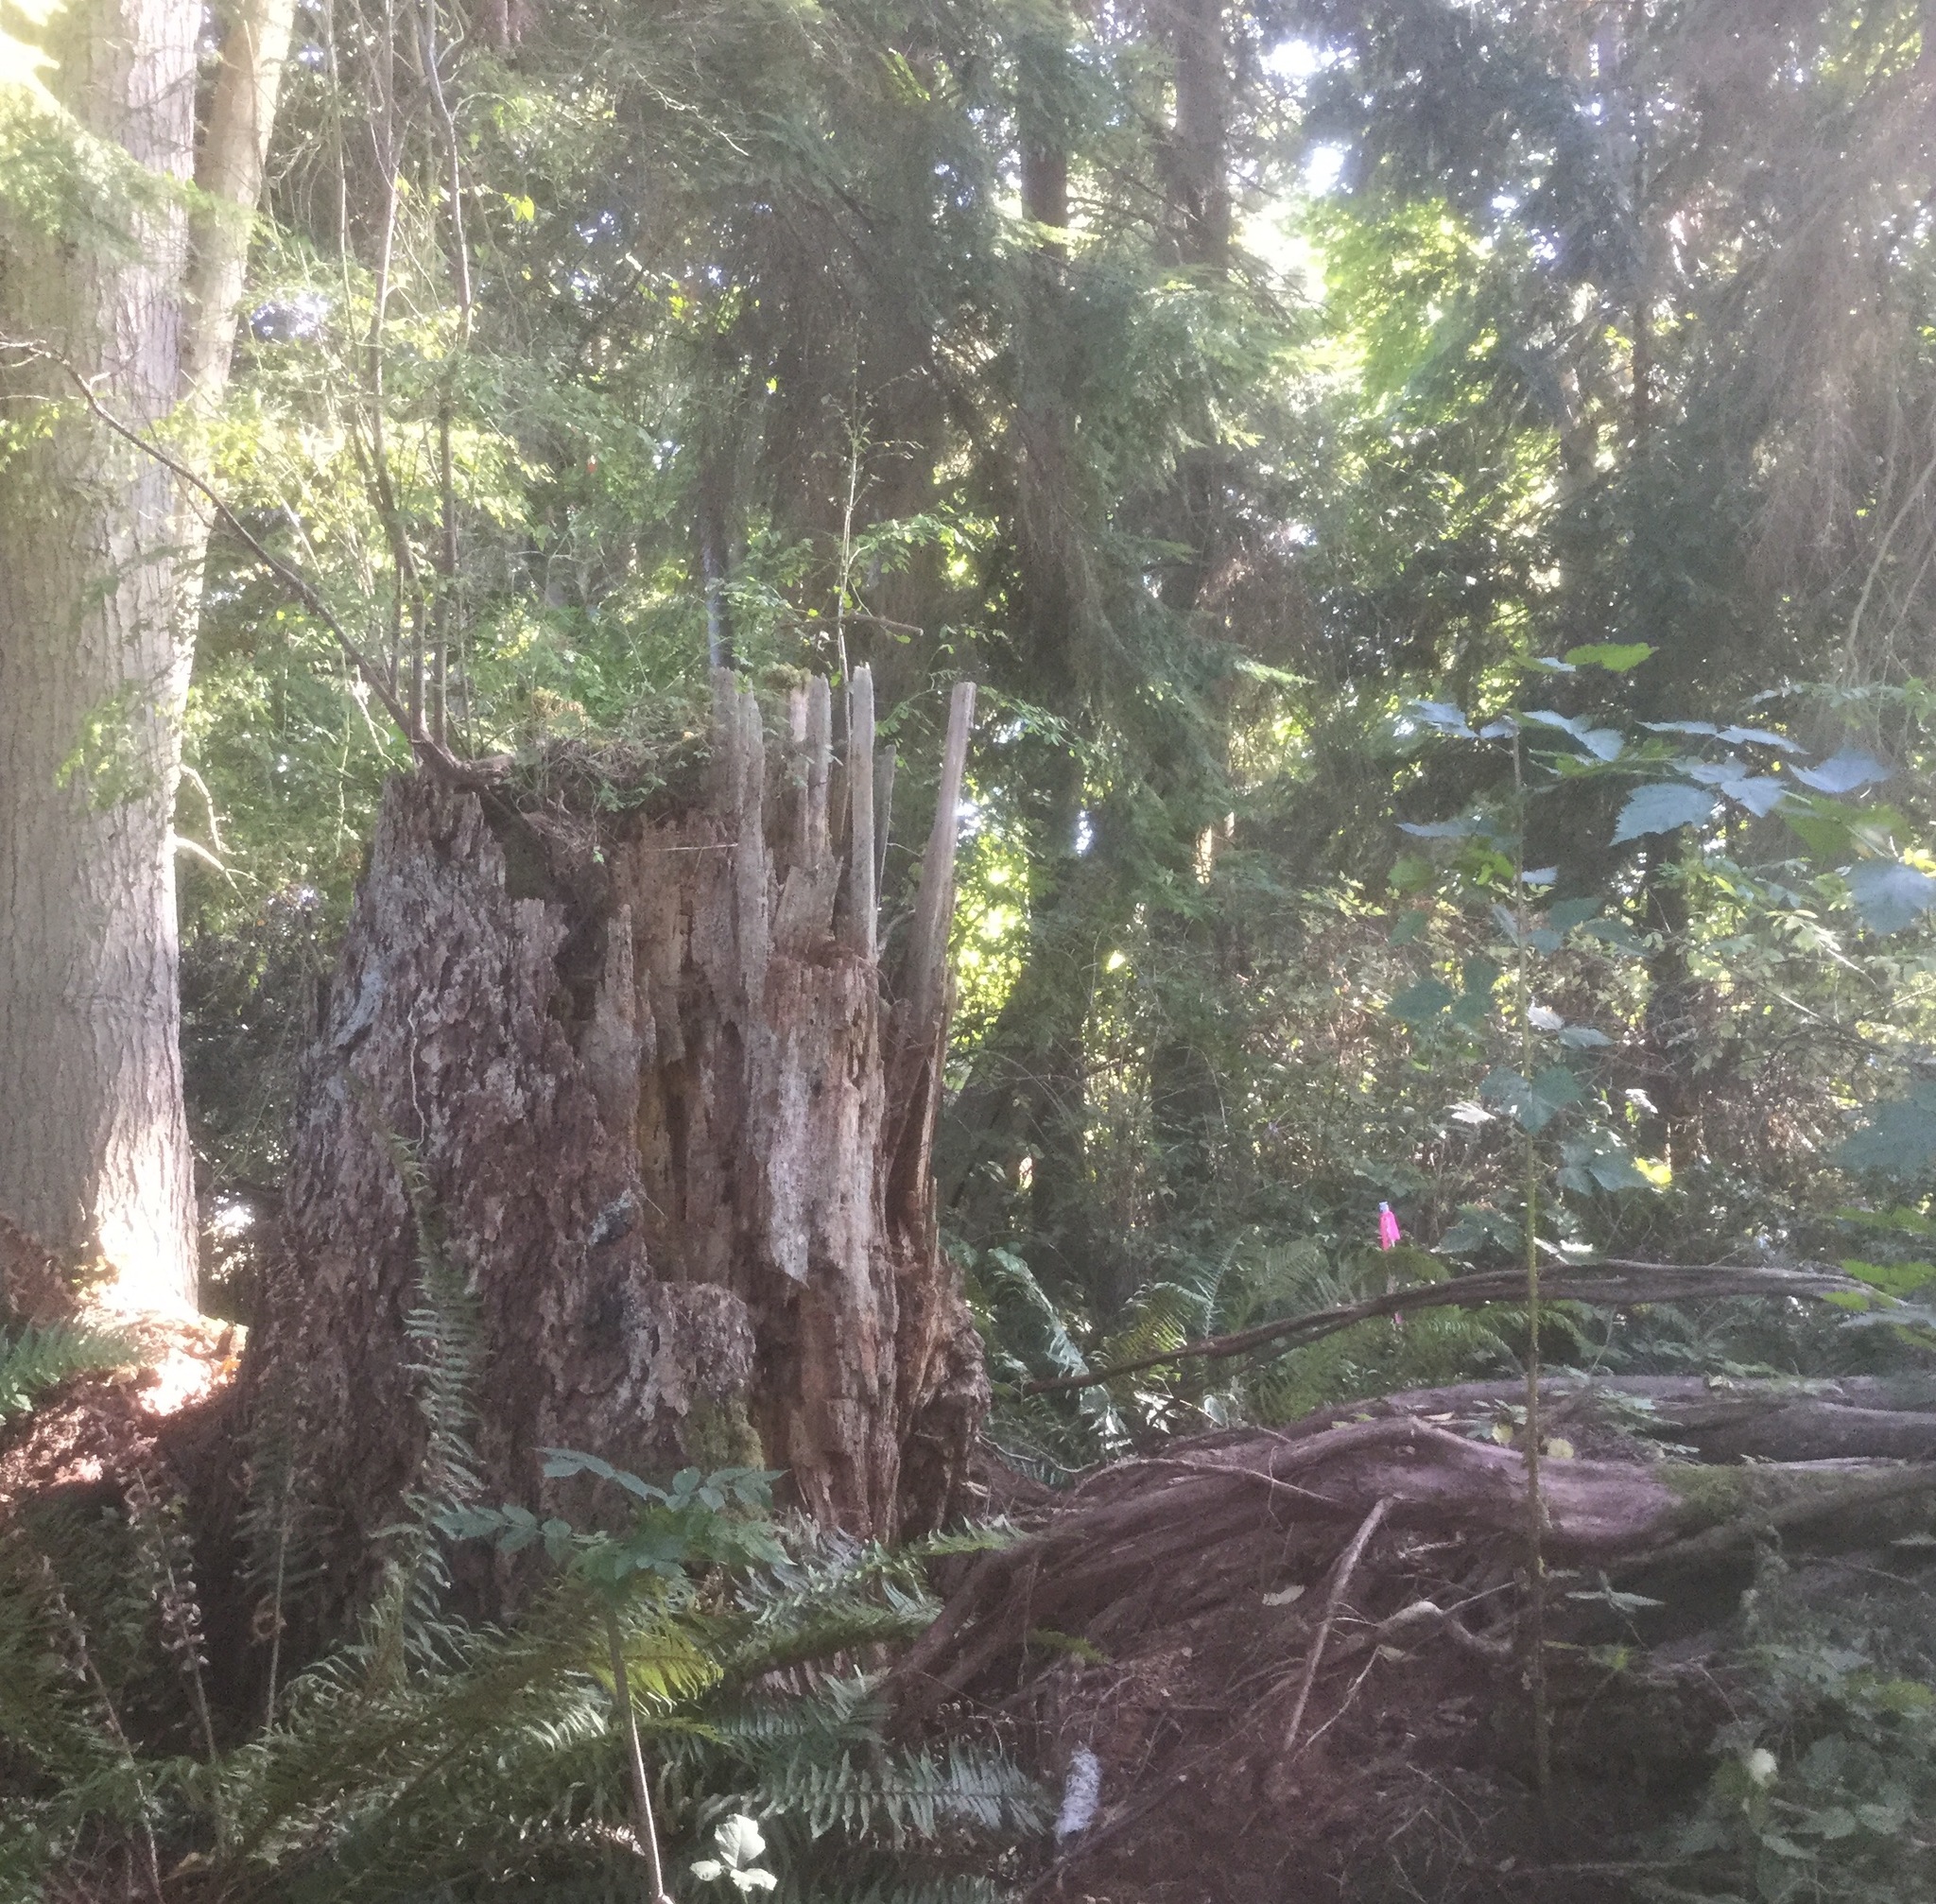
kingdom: Plantae
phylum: Tracheophyta
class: Magnoliopsida
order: Ericales
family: Ericaceae
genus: Vaccinium
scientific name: Vaccinium parvifolium
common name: Red-huckleberry
